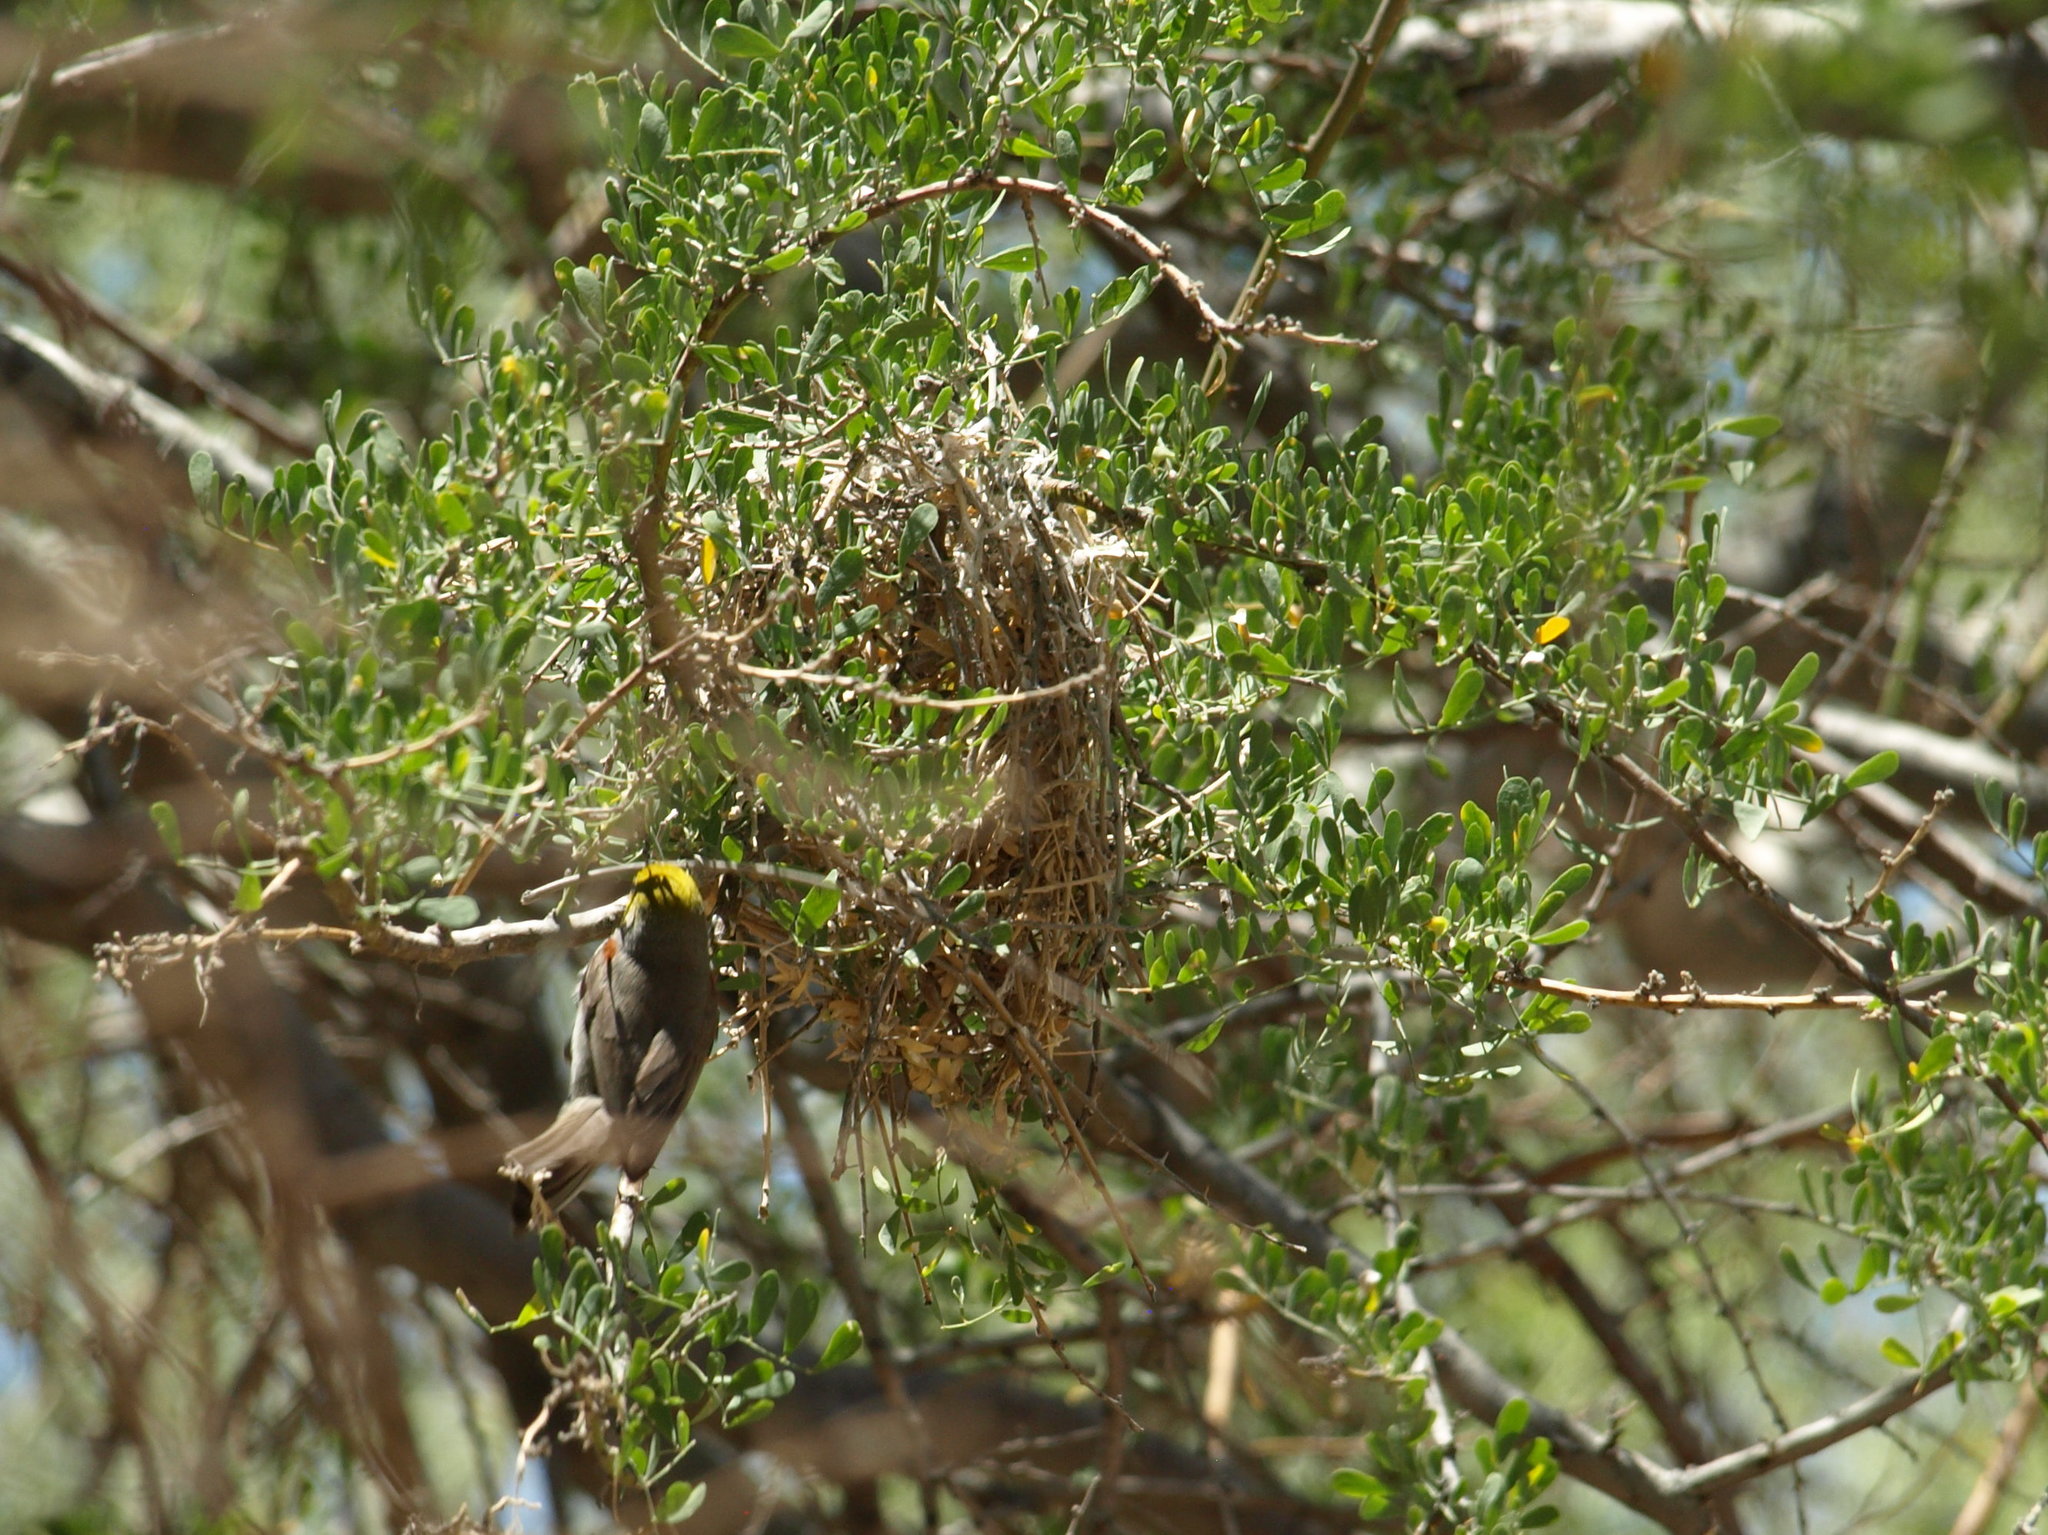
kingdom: Animalia
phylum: Chordata
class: Aves
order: Passeriformes
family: Remizidae
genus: Auriparus
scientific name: Auriparus flaviceps
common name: Verdin
